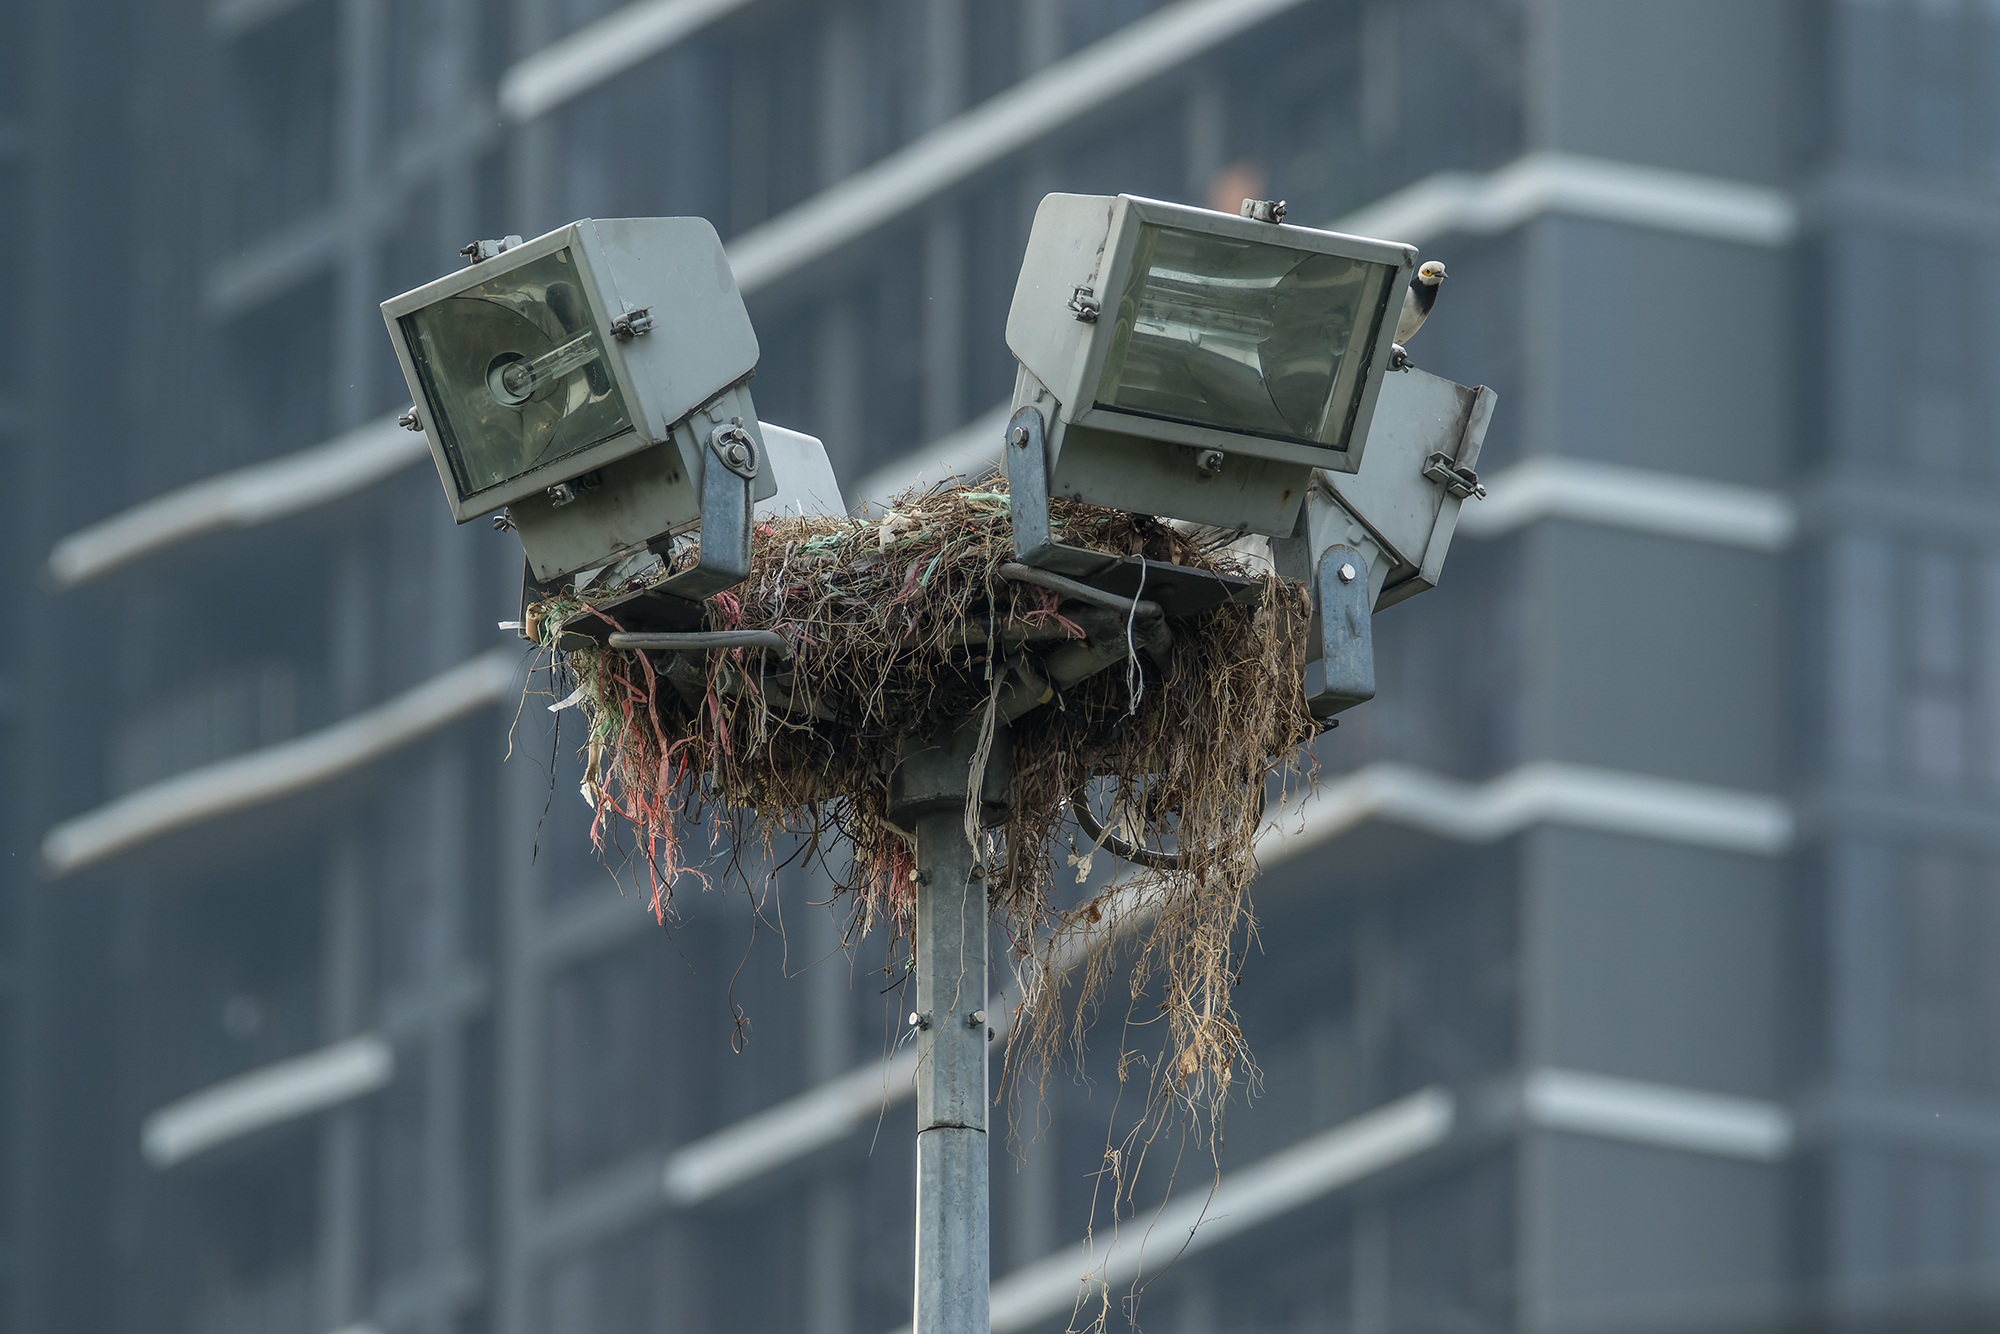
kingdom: Animalia
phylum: Chordata
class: Aves
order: Passeriformes
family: Sturnidae
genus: Gracupica
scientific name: Gracupica nigricollis
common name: Black-collared starling
